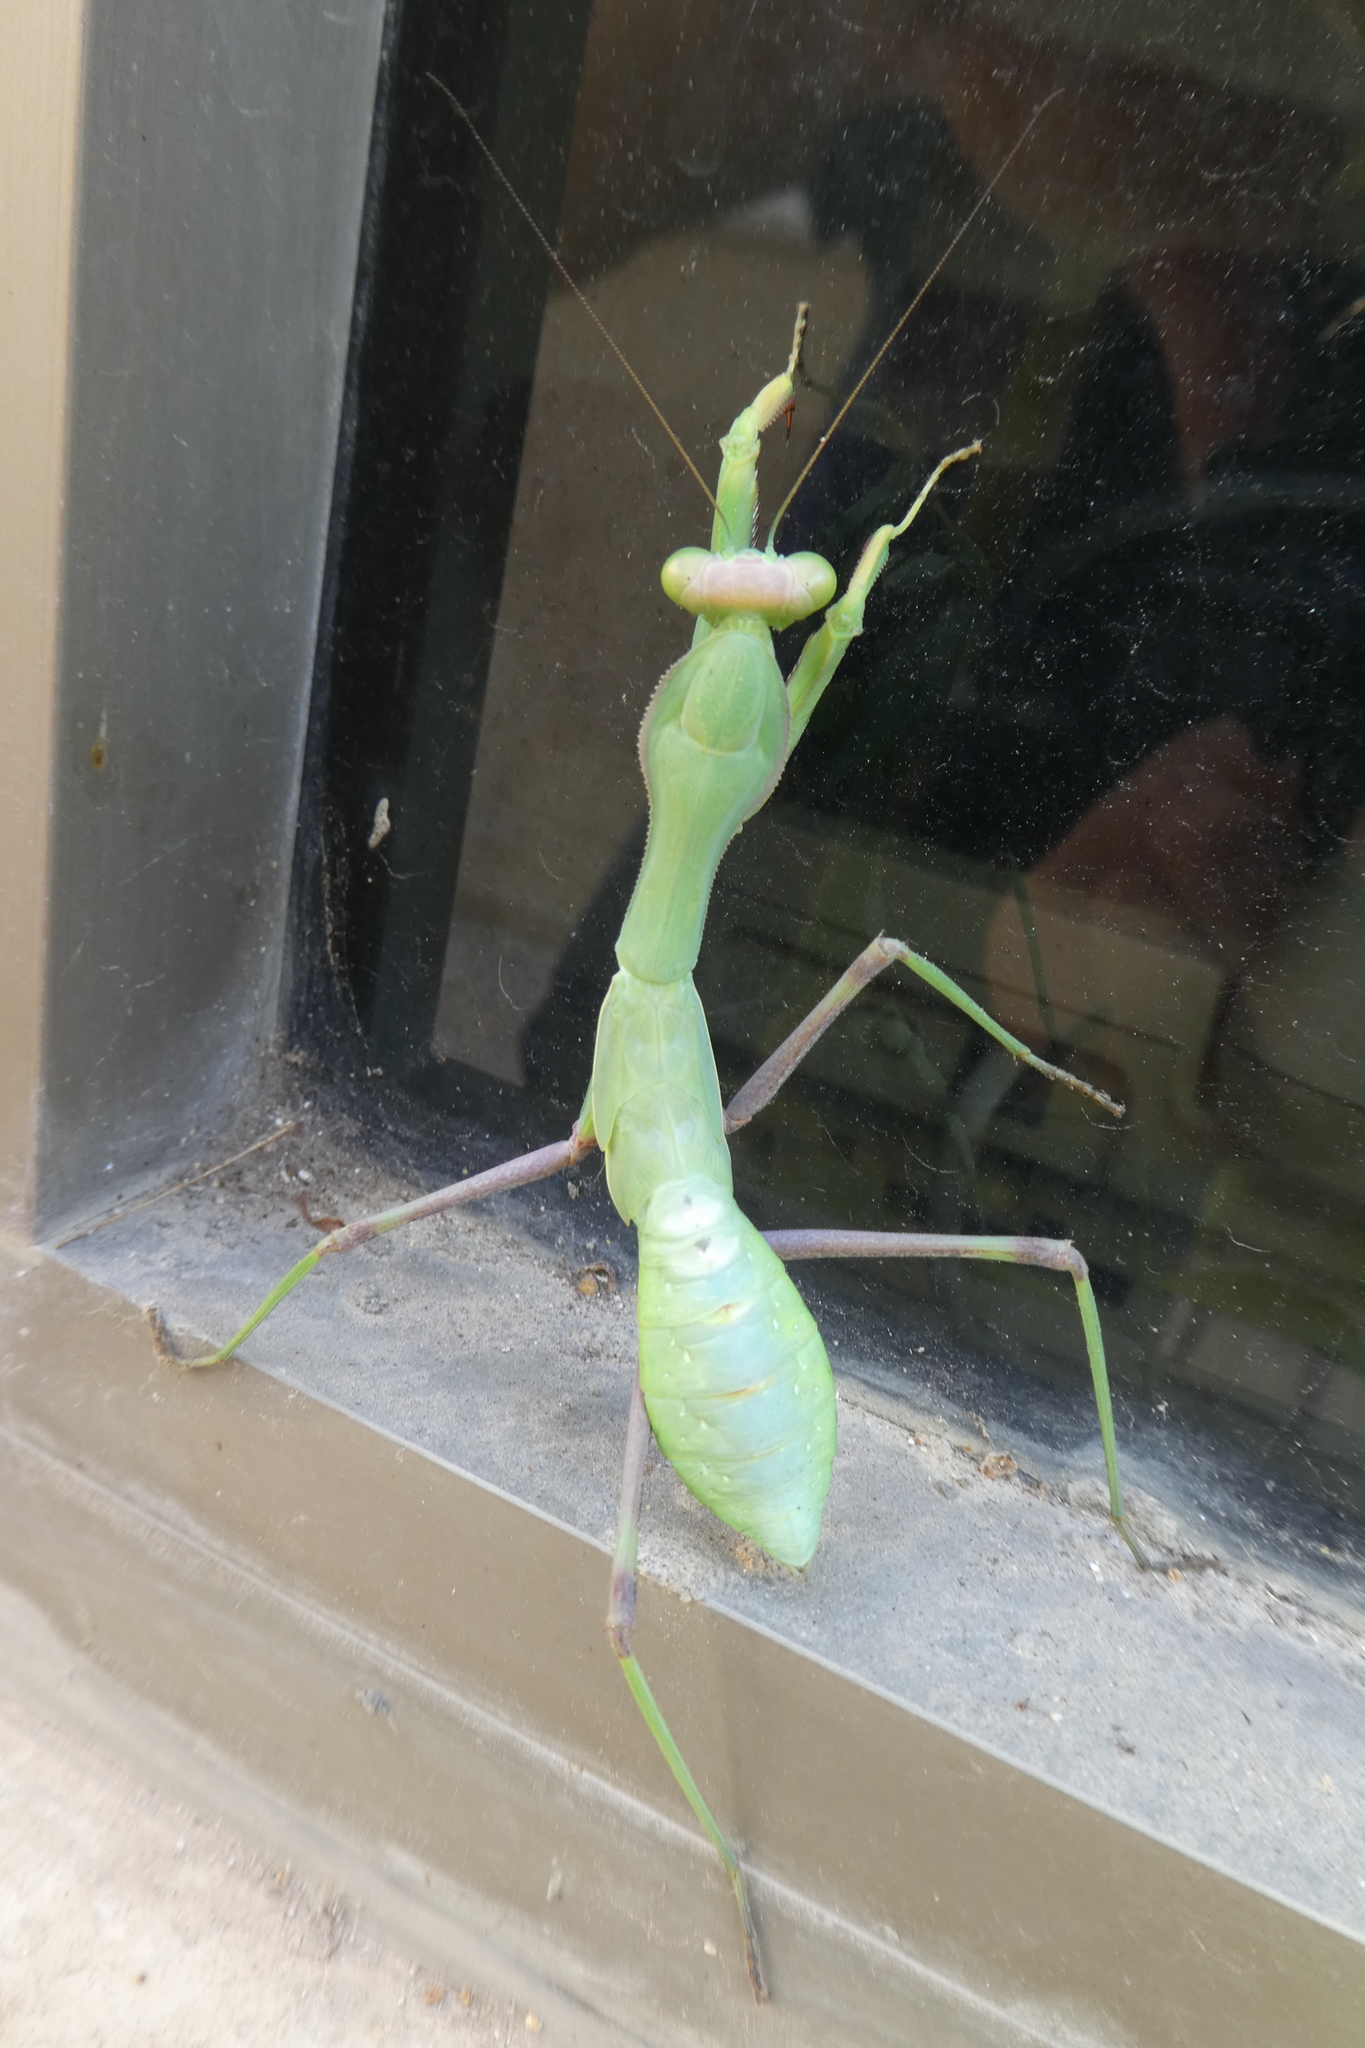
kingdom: Animalia
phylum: Arthropoda
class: Insecta
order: Mantodea
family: Mantidae
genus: Sphodromantis
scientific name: Sphodromantis viridis
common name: Giant african mantis
